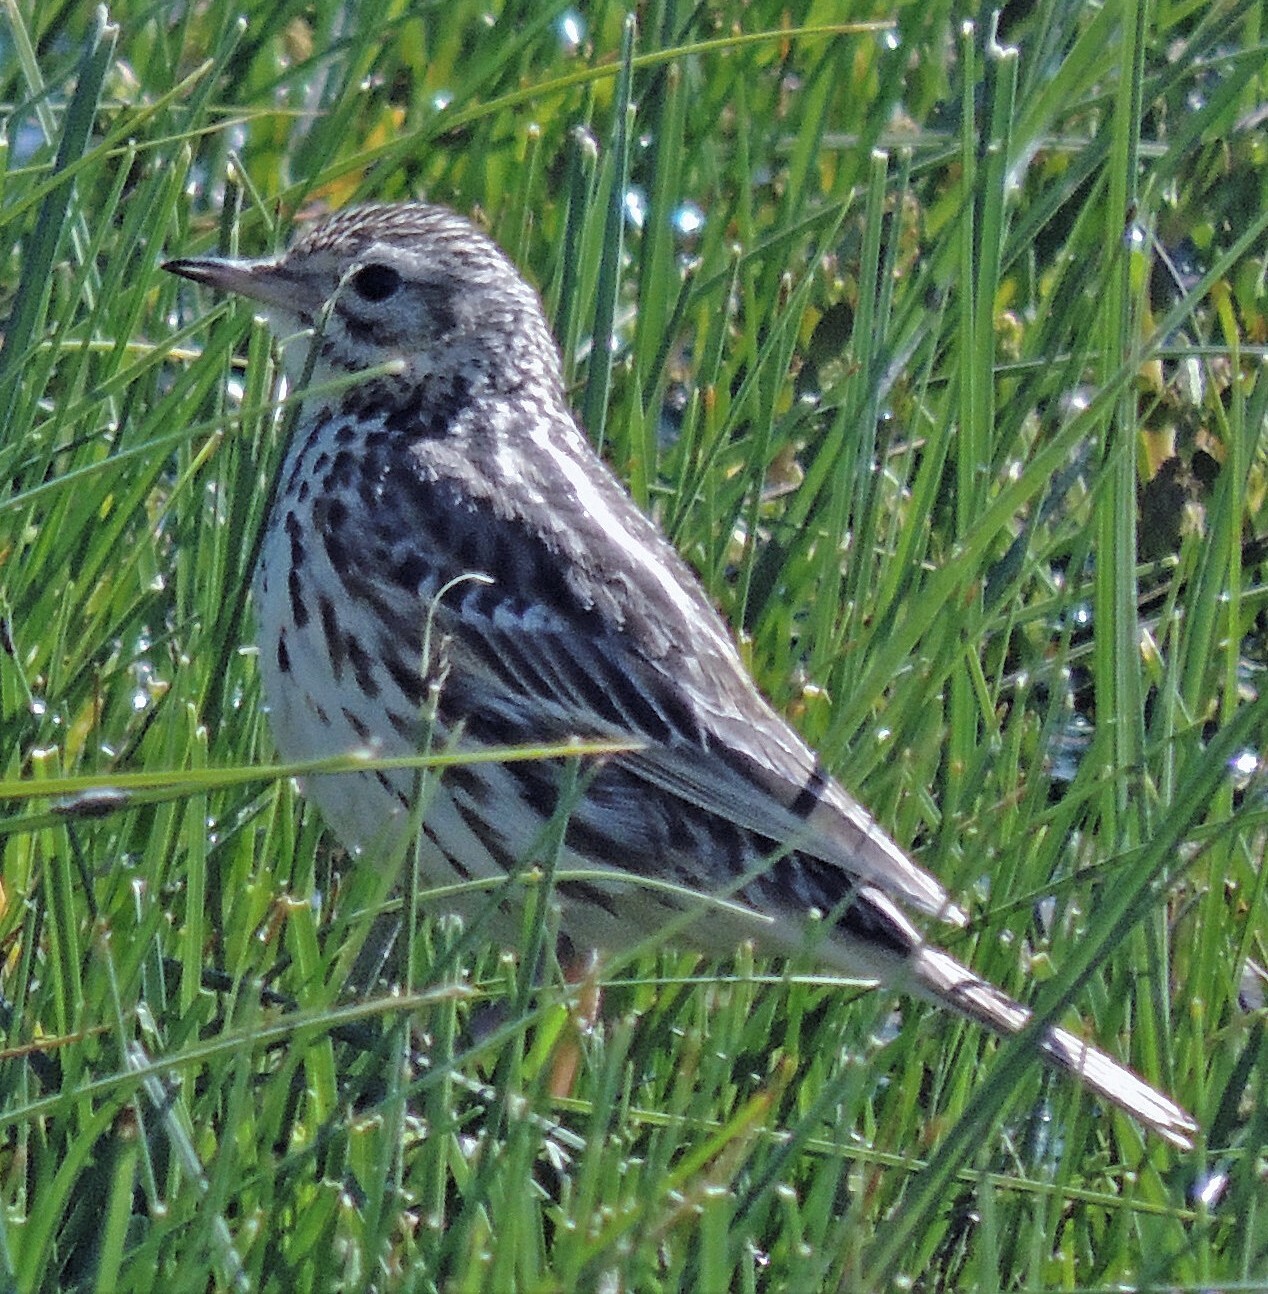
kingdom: Animalia
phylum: Chordata
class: Aves
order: Passeriformes
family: Motacillidae
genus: Anthus
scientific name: Anthus correndera
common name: Correndera pipit
